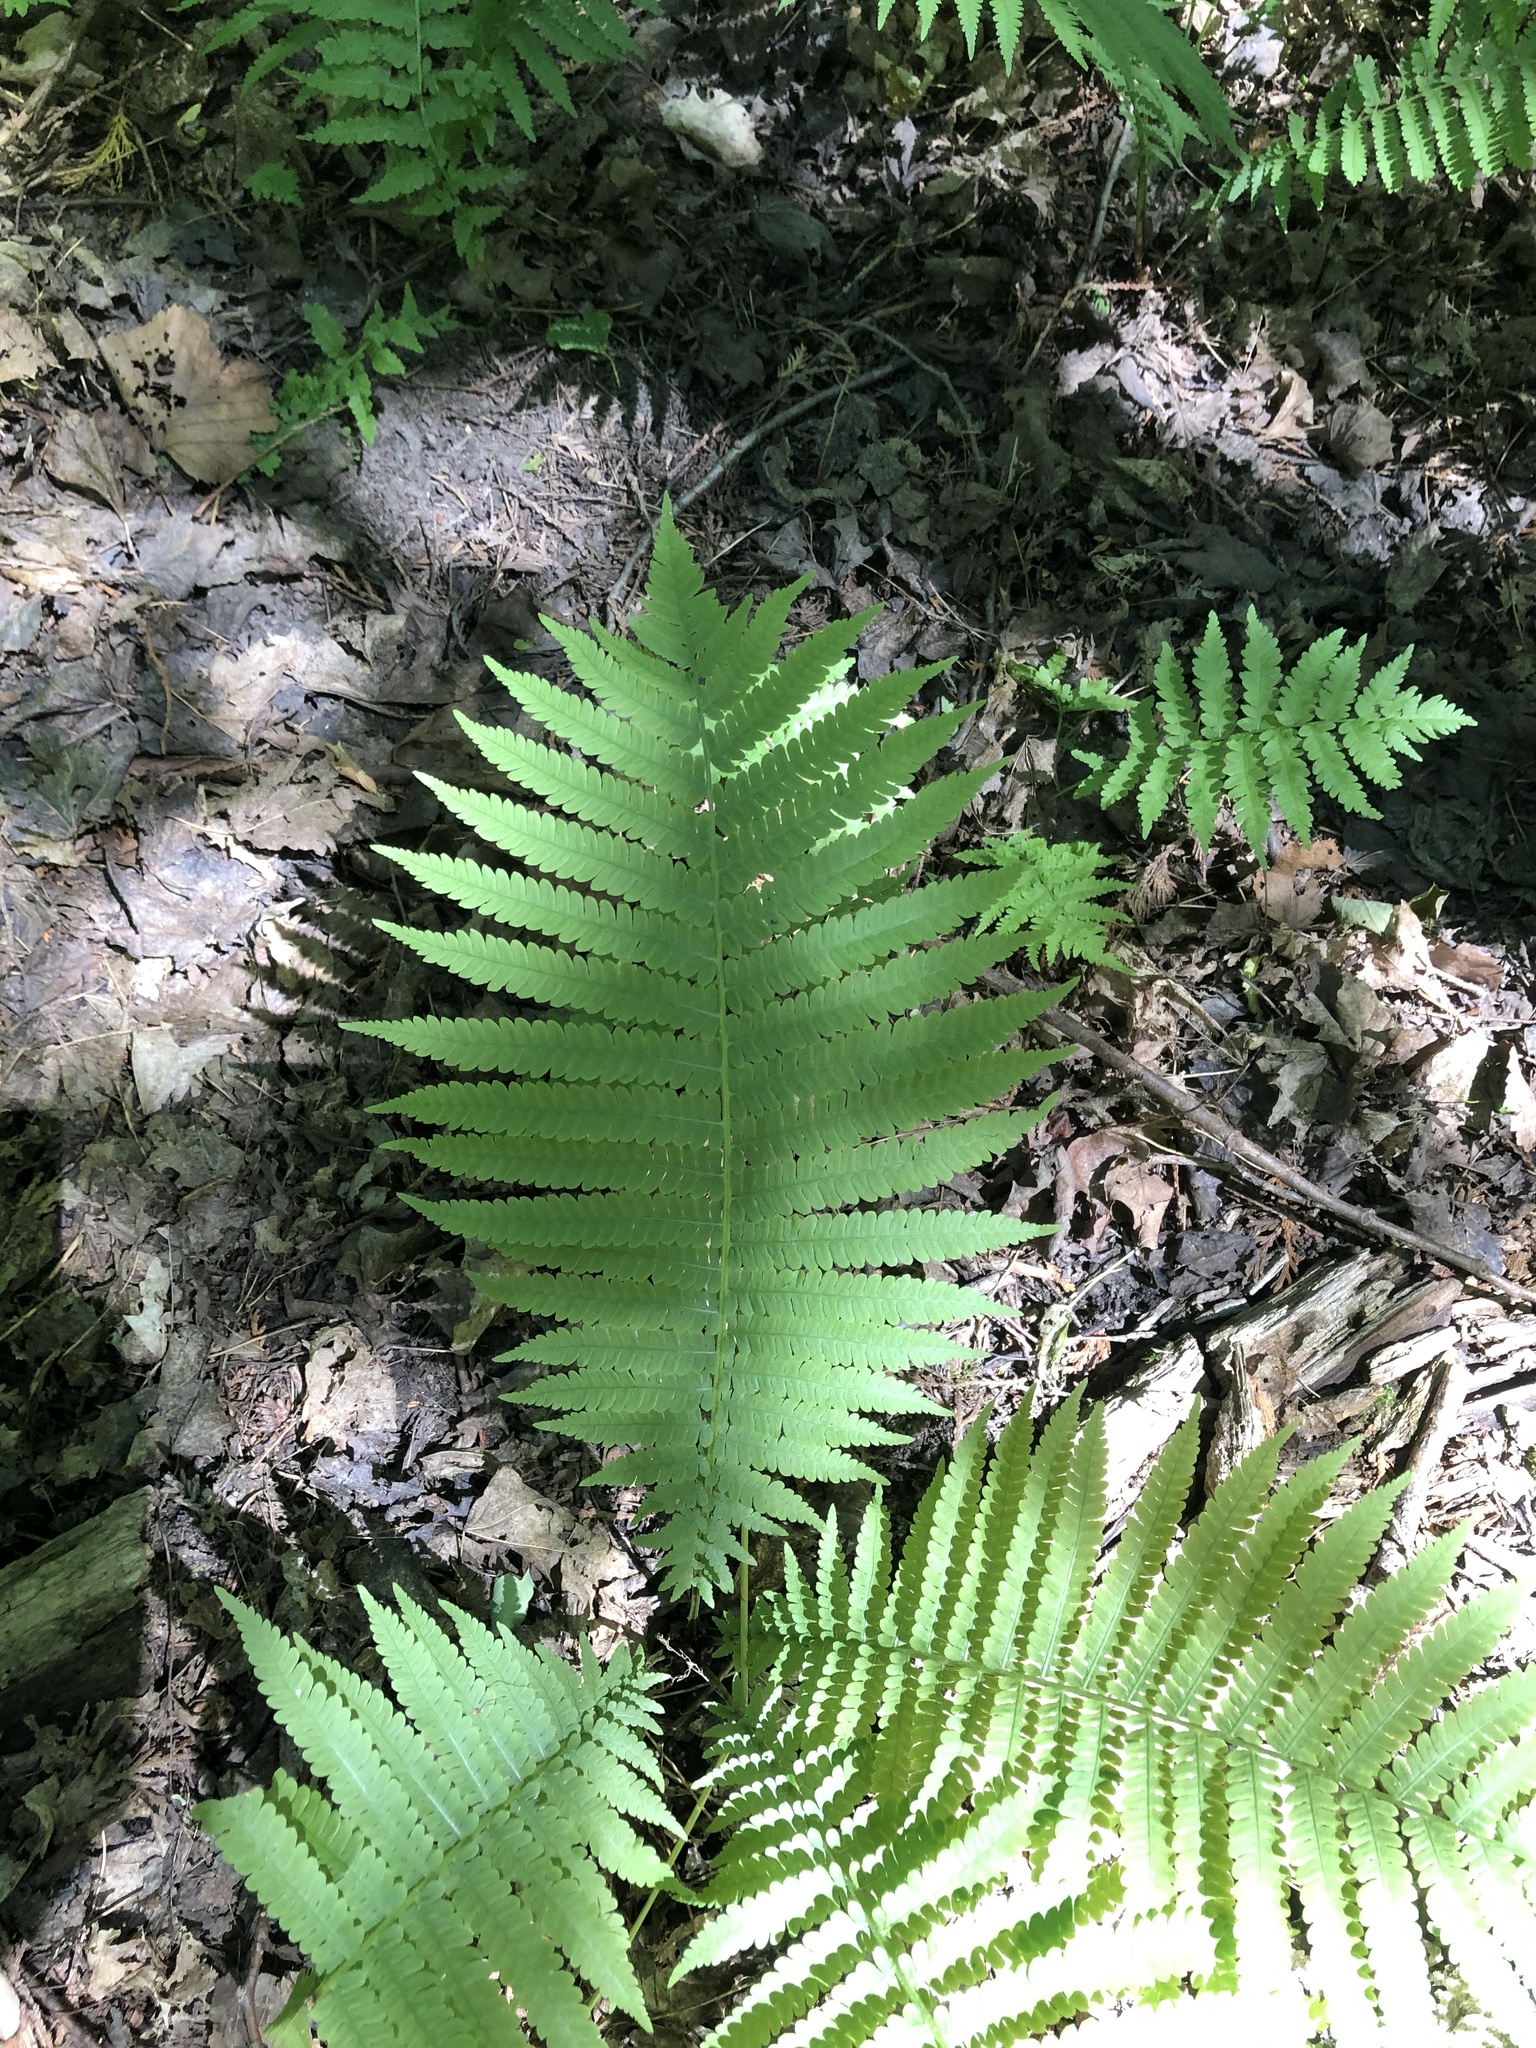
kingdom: Plantae
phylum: Tracheophyta
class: Polypodiopsida
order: Polypodiales
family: Onocleaceae
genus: Matteuccia
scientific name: Matteuccia struthiopteris
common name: Ostrich fern
